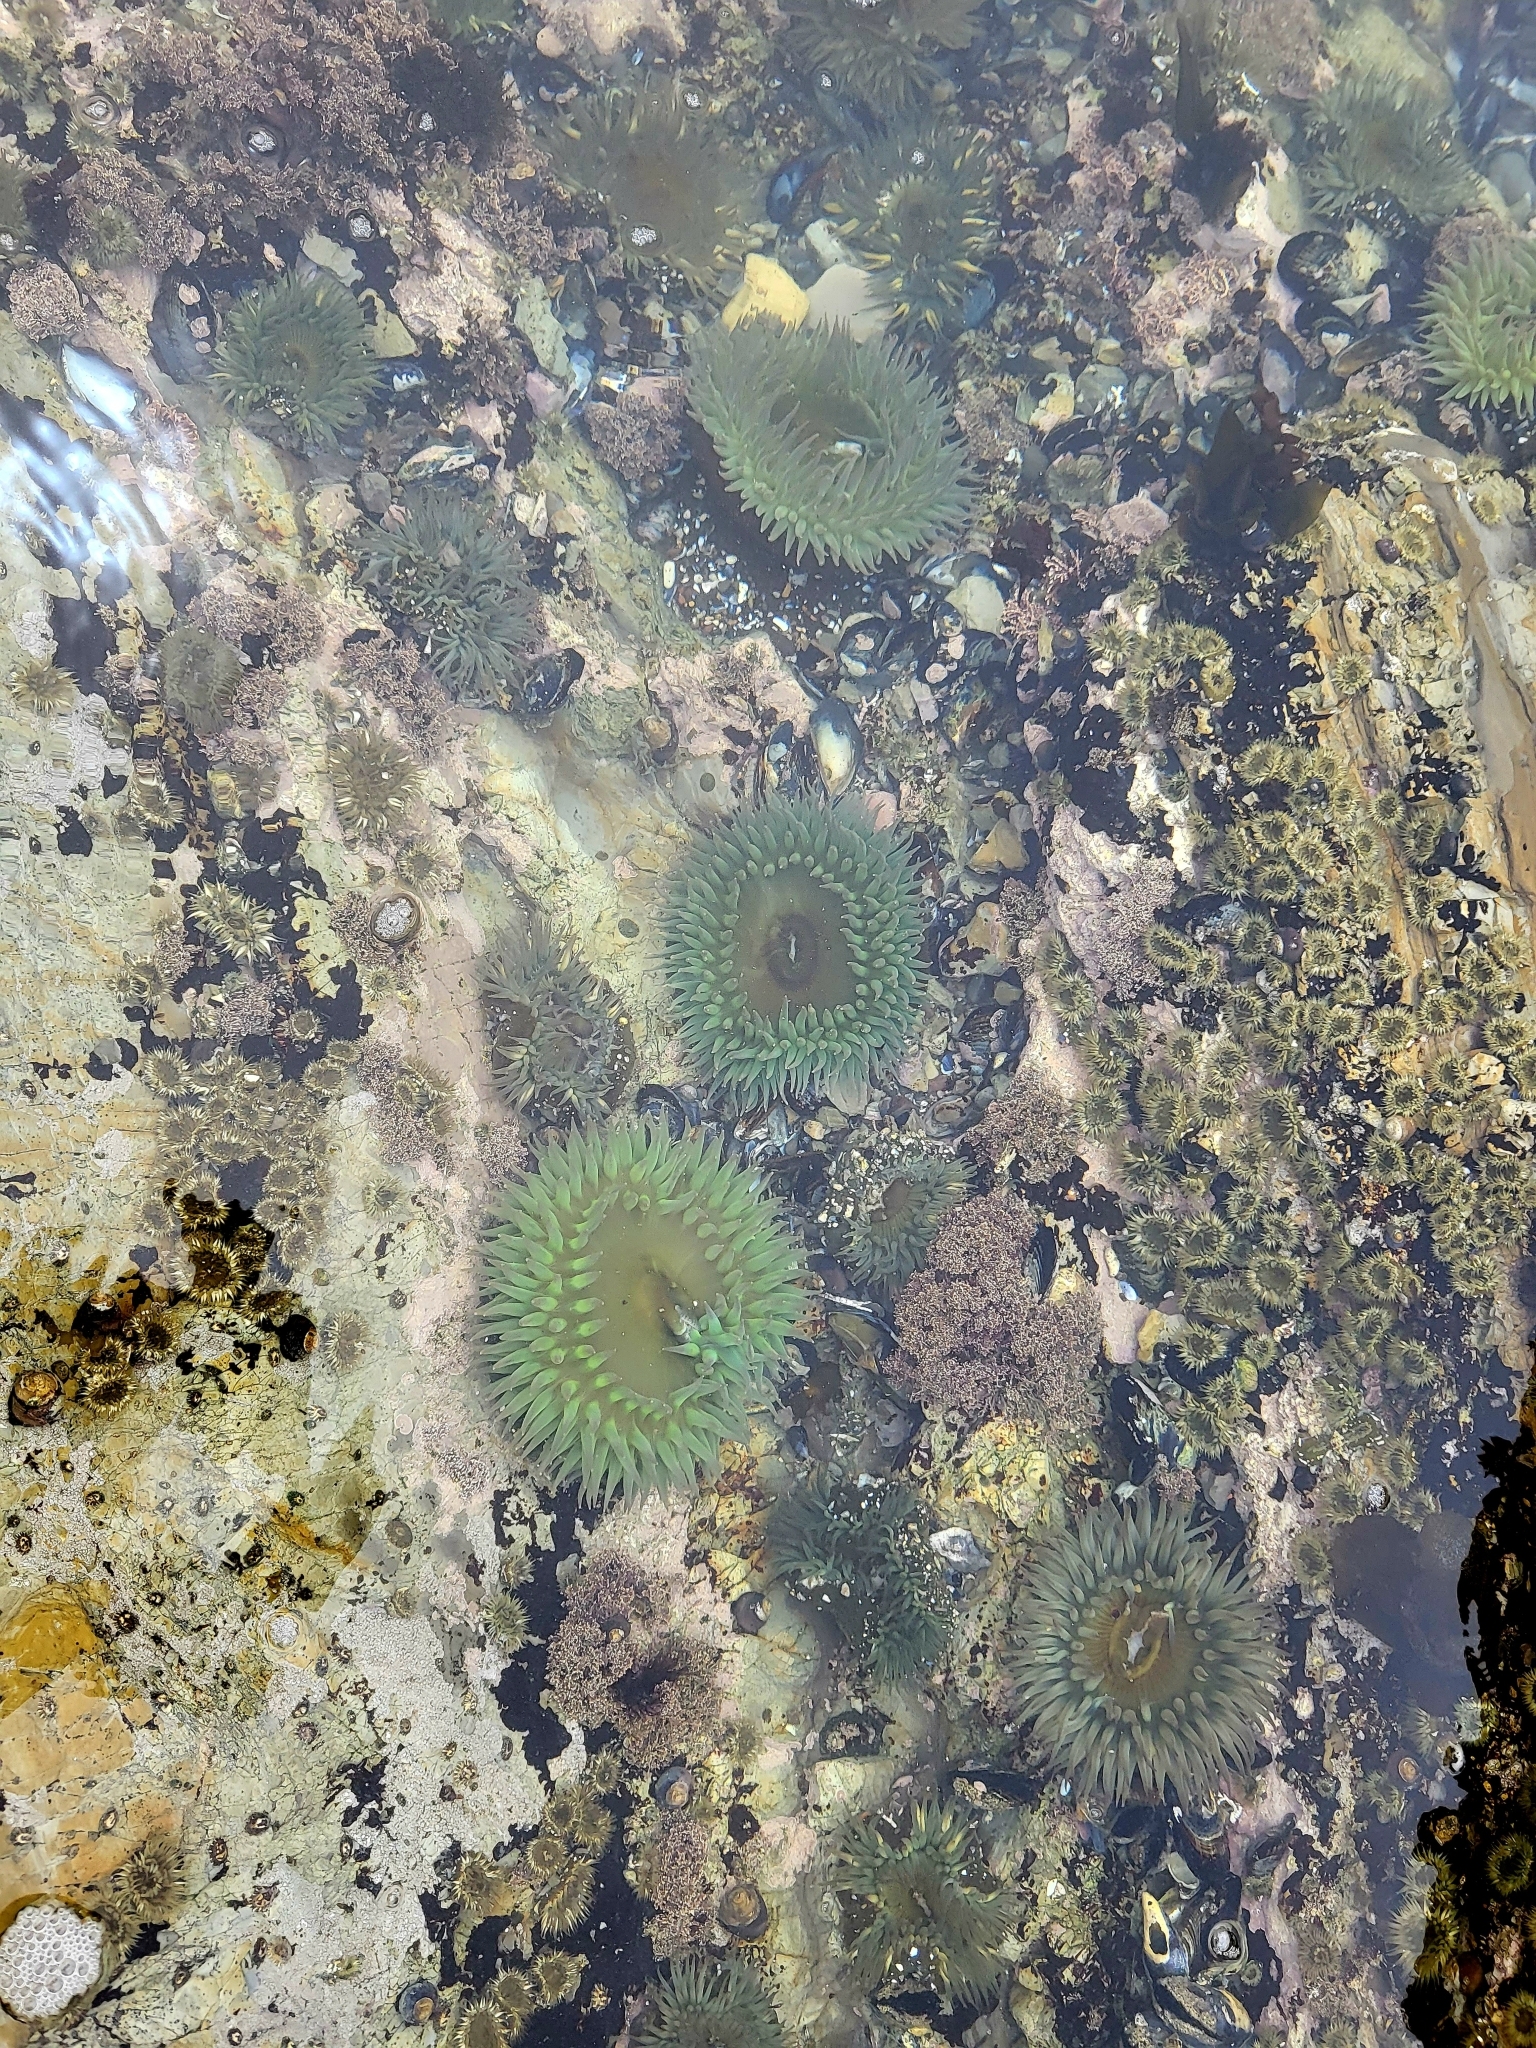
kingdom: Animalia
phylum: Cnidaria
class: Anthozoa
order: Actiniaria
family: Actiniidae
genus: Anthopleura
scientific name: Anthopleura xanthogrammica
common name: Giant green anemone
